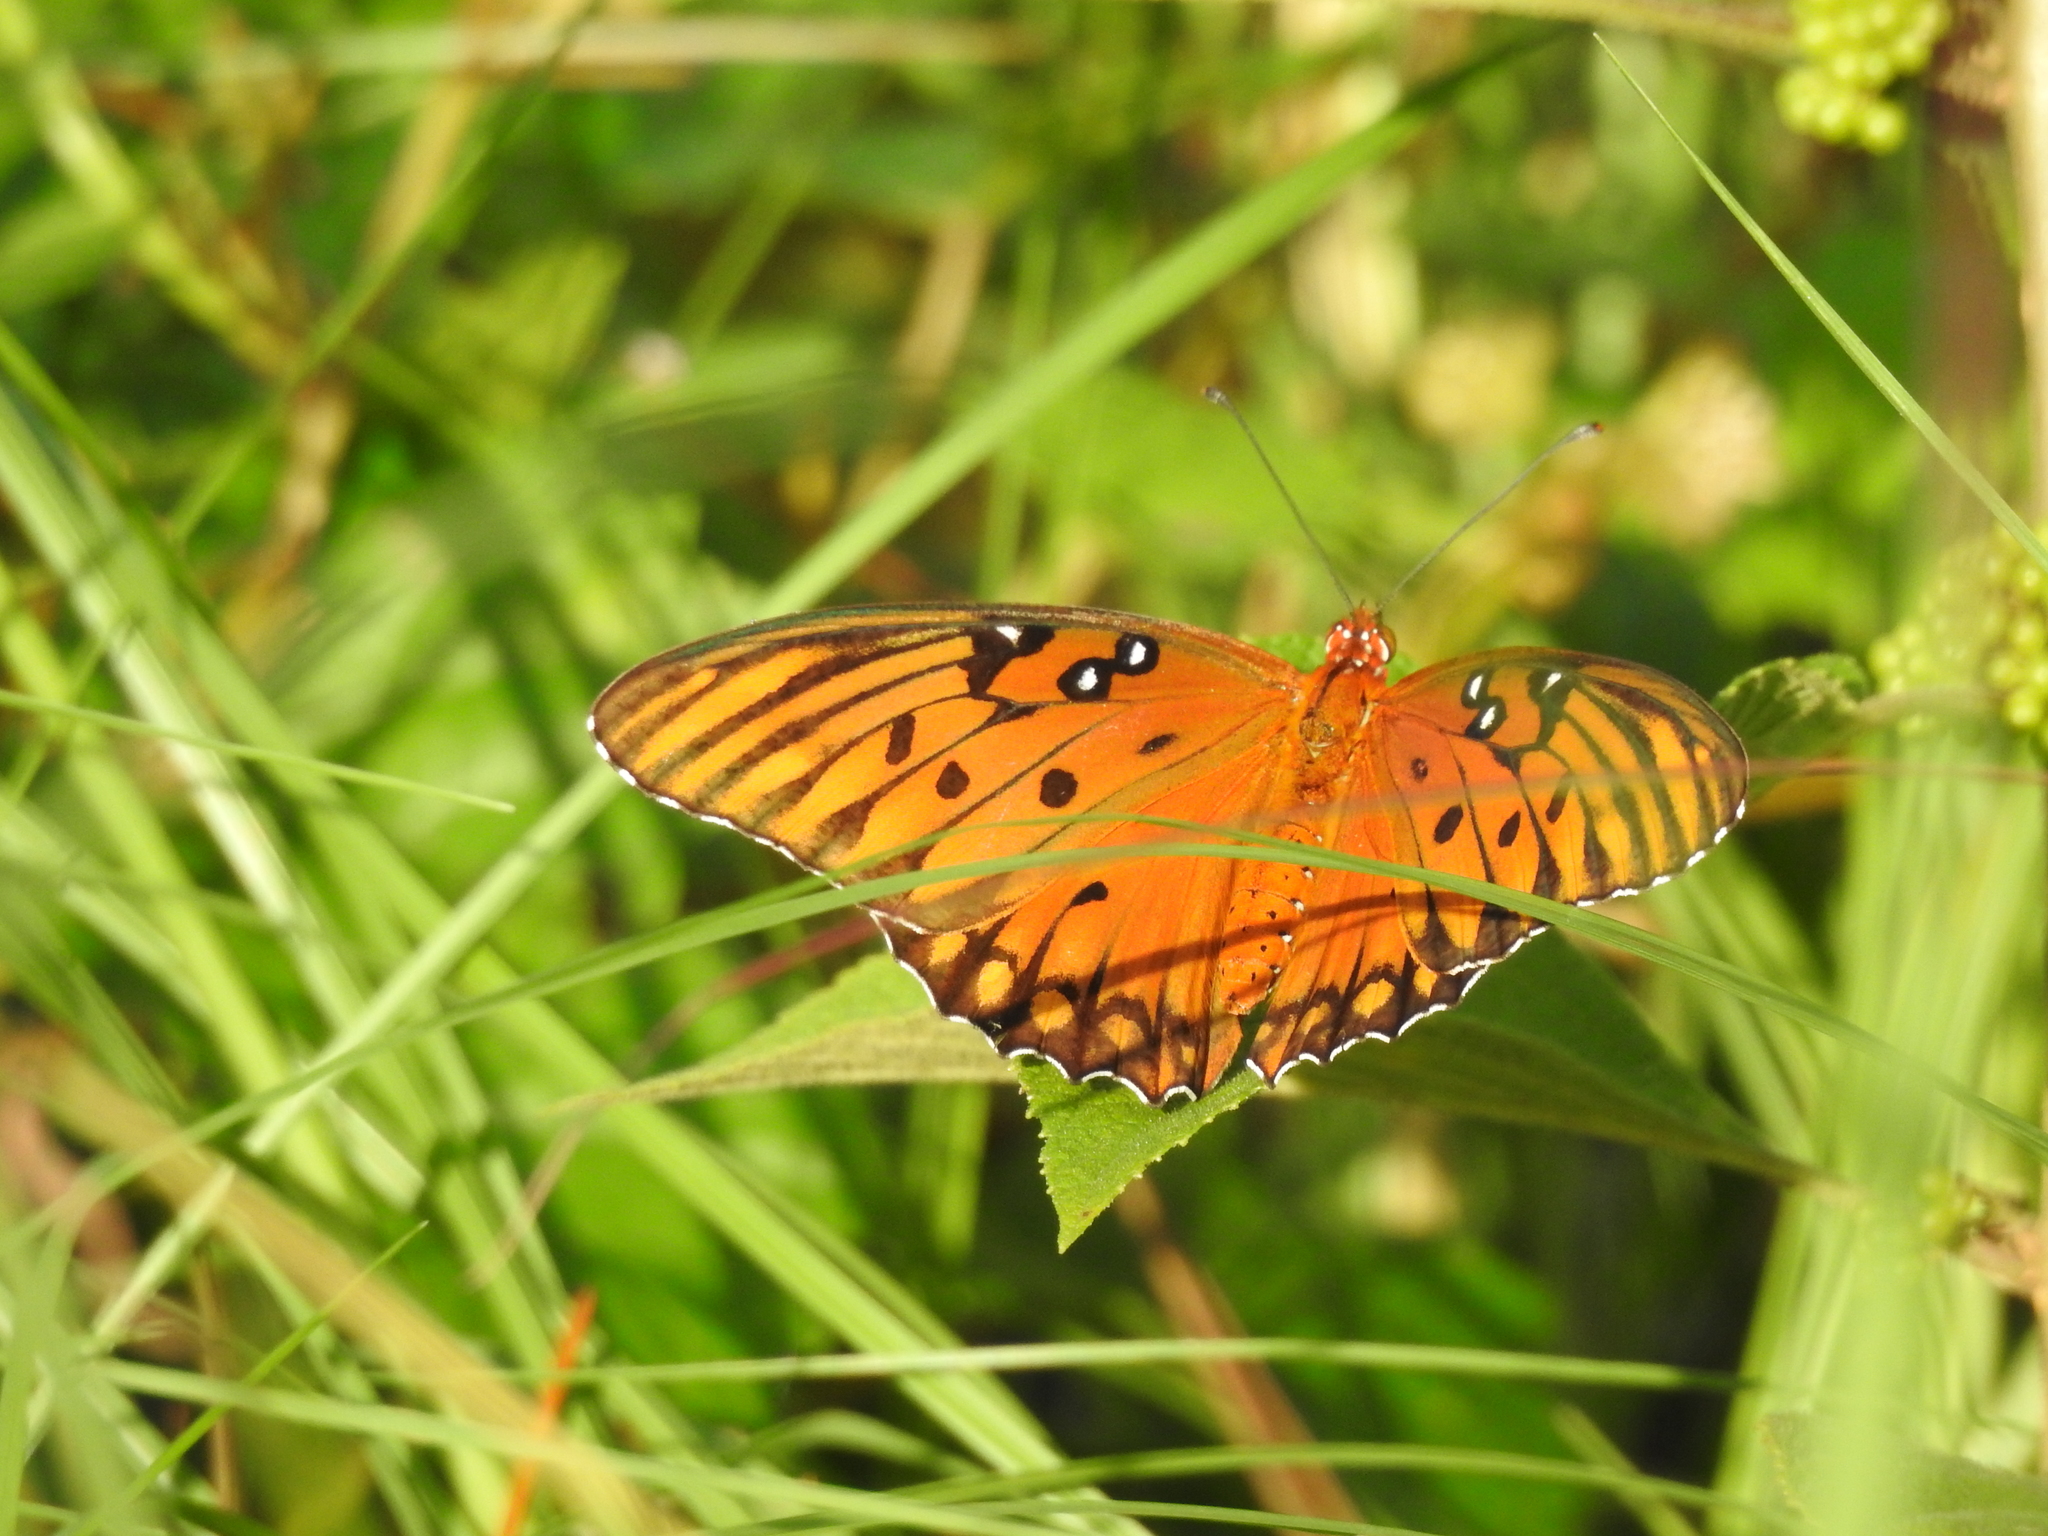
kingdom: Animalia
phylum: Arthropoda
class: Insecta
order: Lepidoptera
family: Nymphalidae
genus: Dione
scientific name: Dione vanillae
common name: Gulf fritillary
